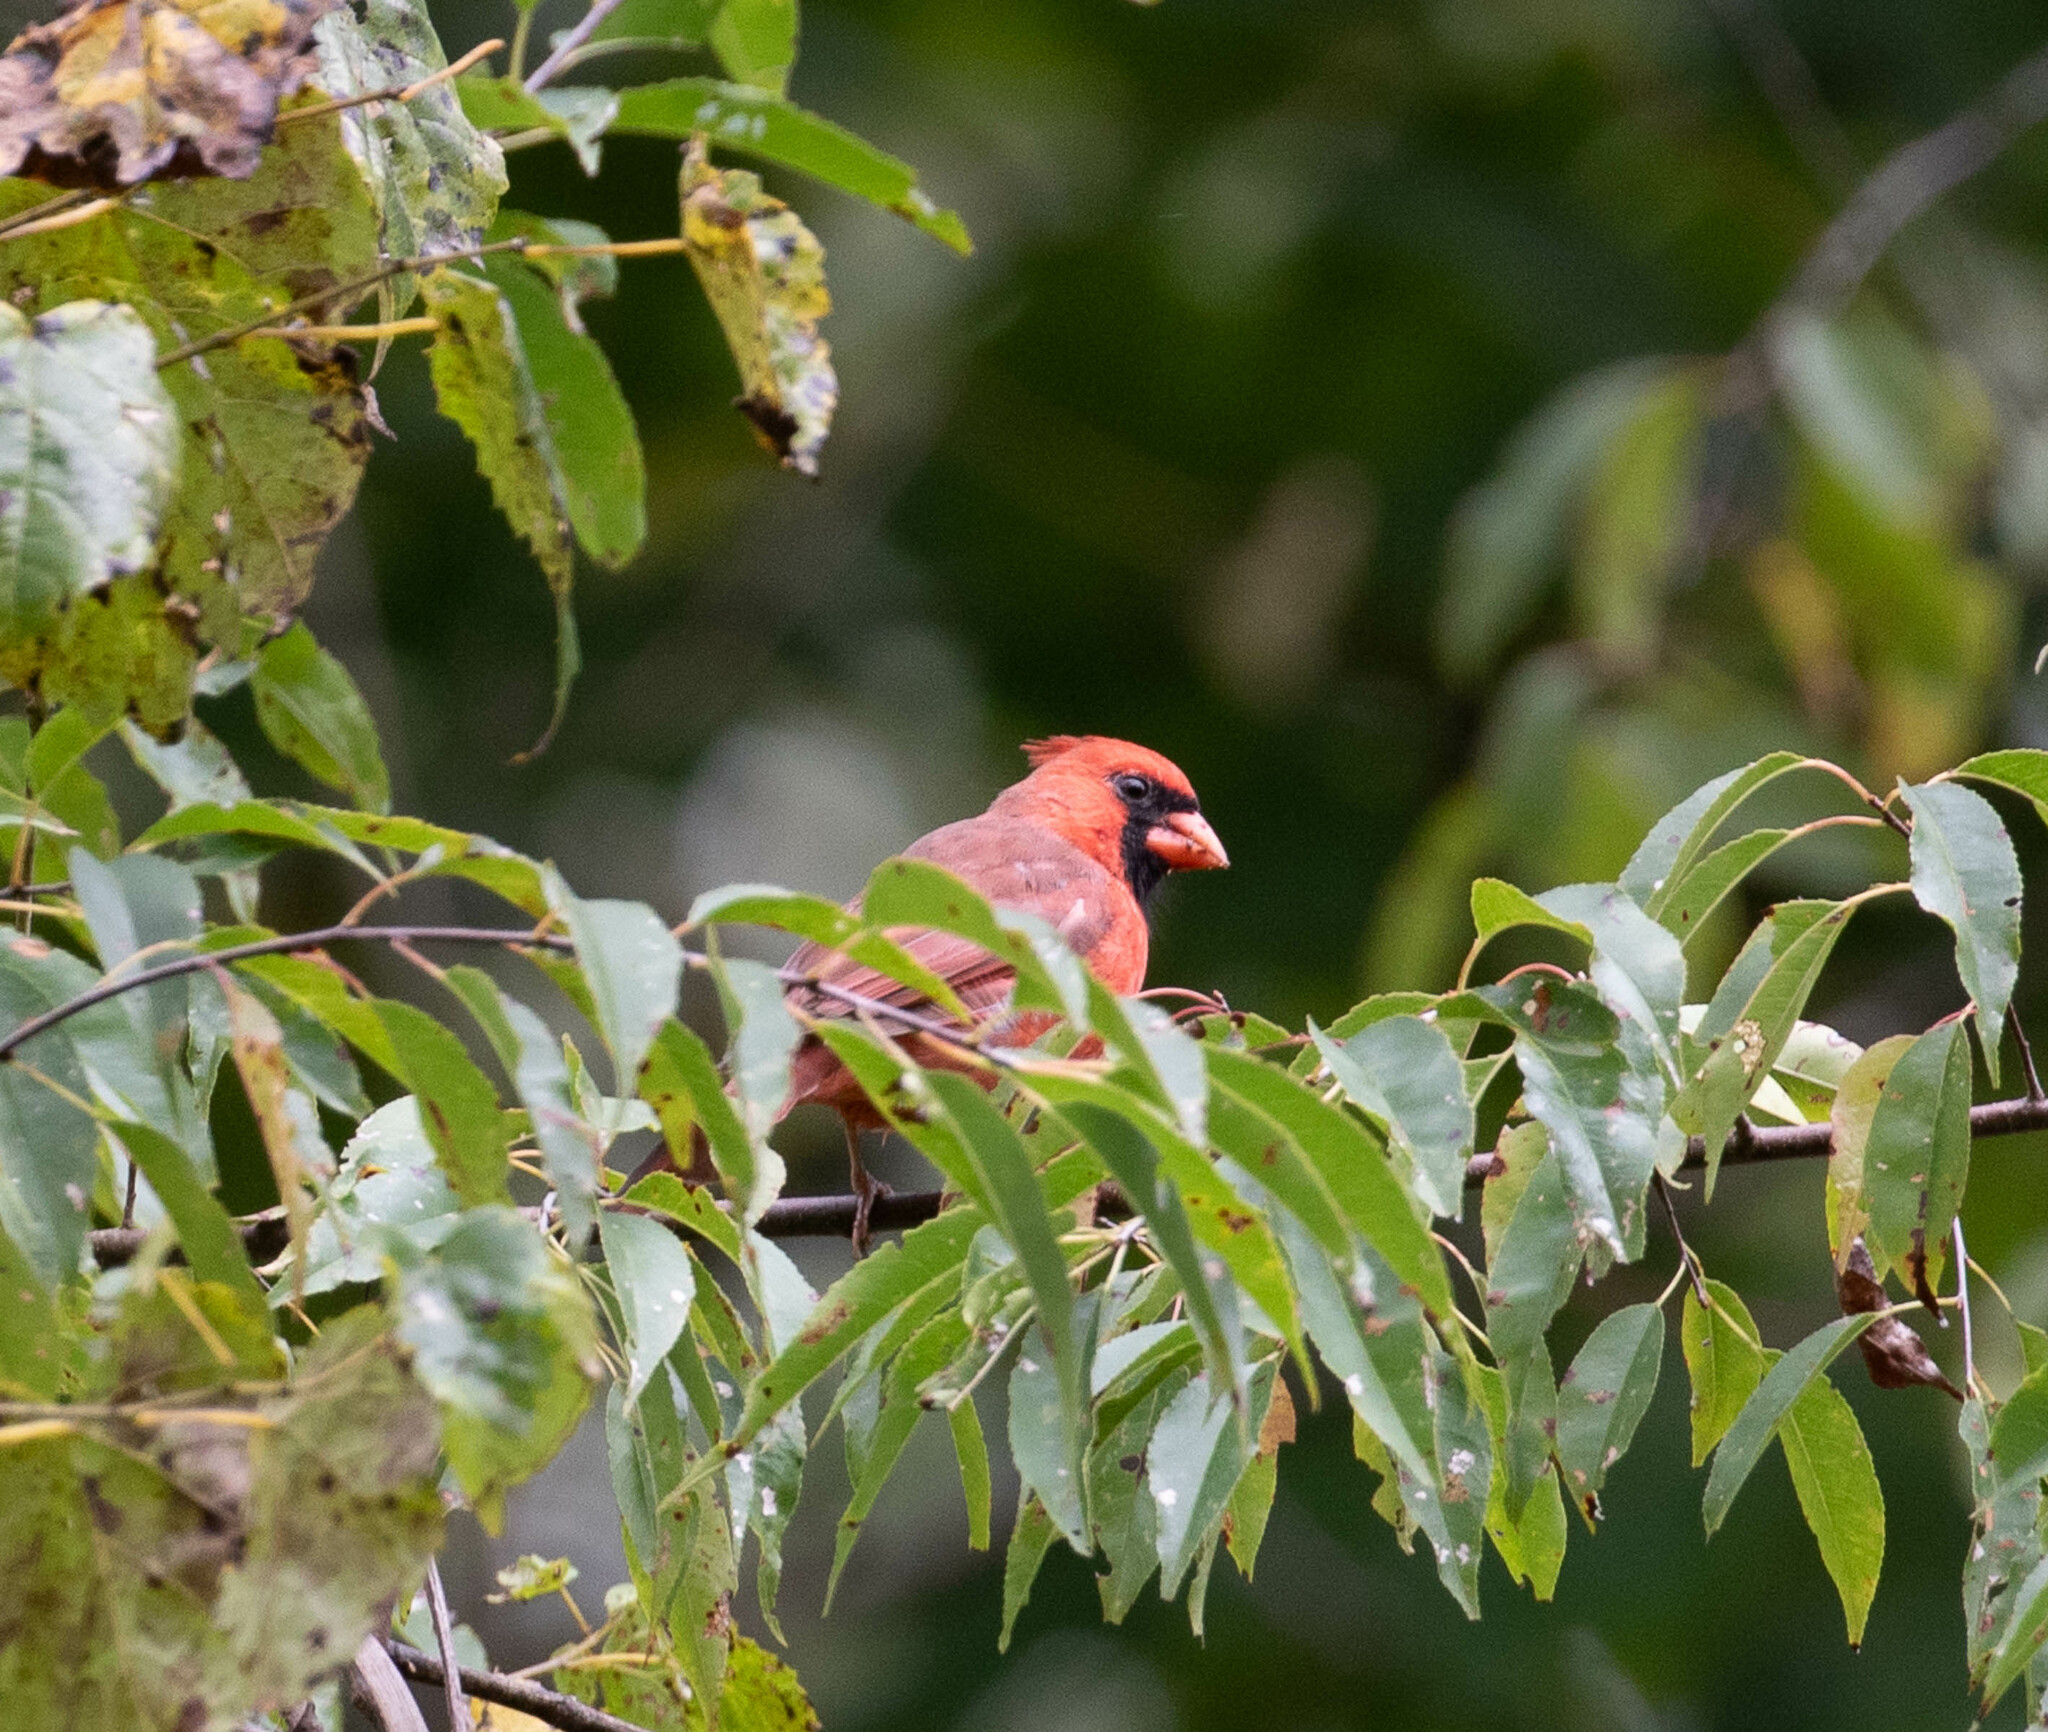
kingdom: Animalia
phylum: Chordata
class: Aves
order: Passeriformes
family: Cardinalidae
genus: Cardinalis
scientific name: Cardinalis cardinalis
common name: Northern cardinal
